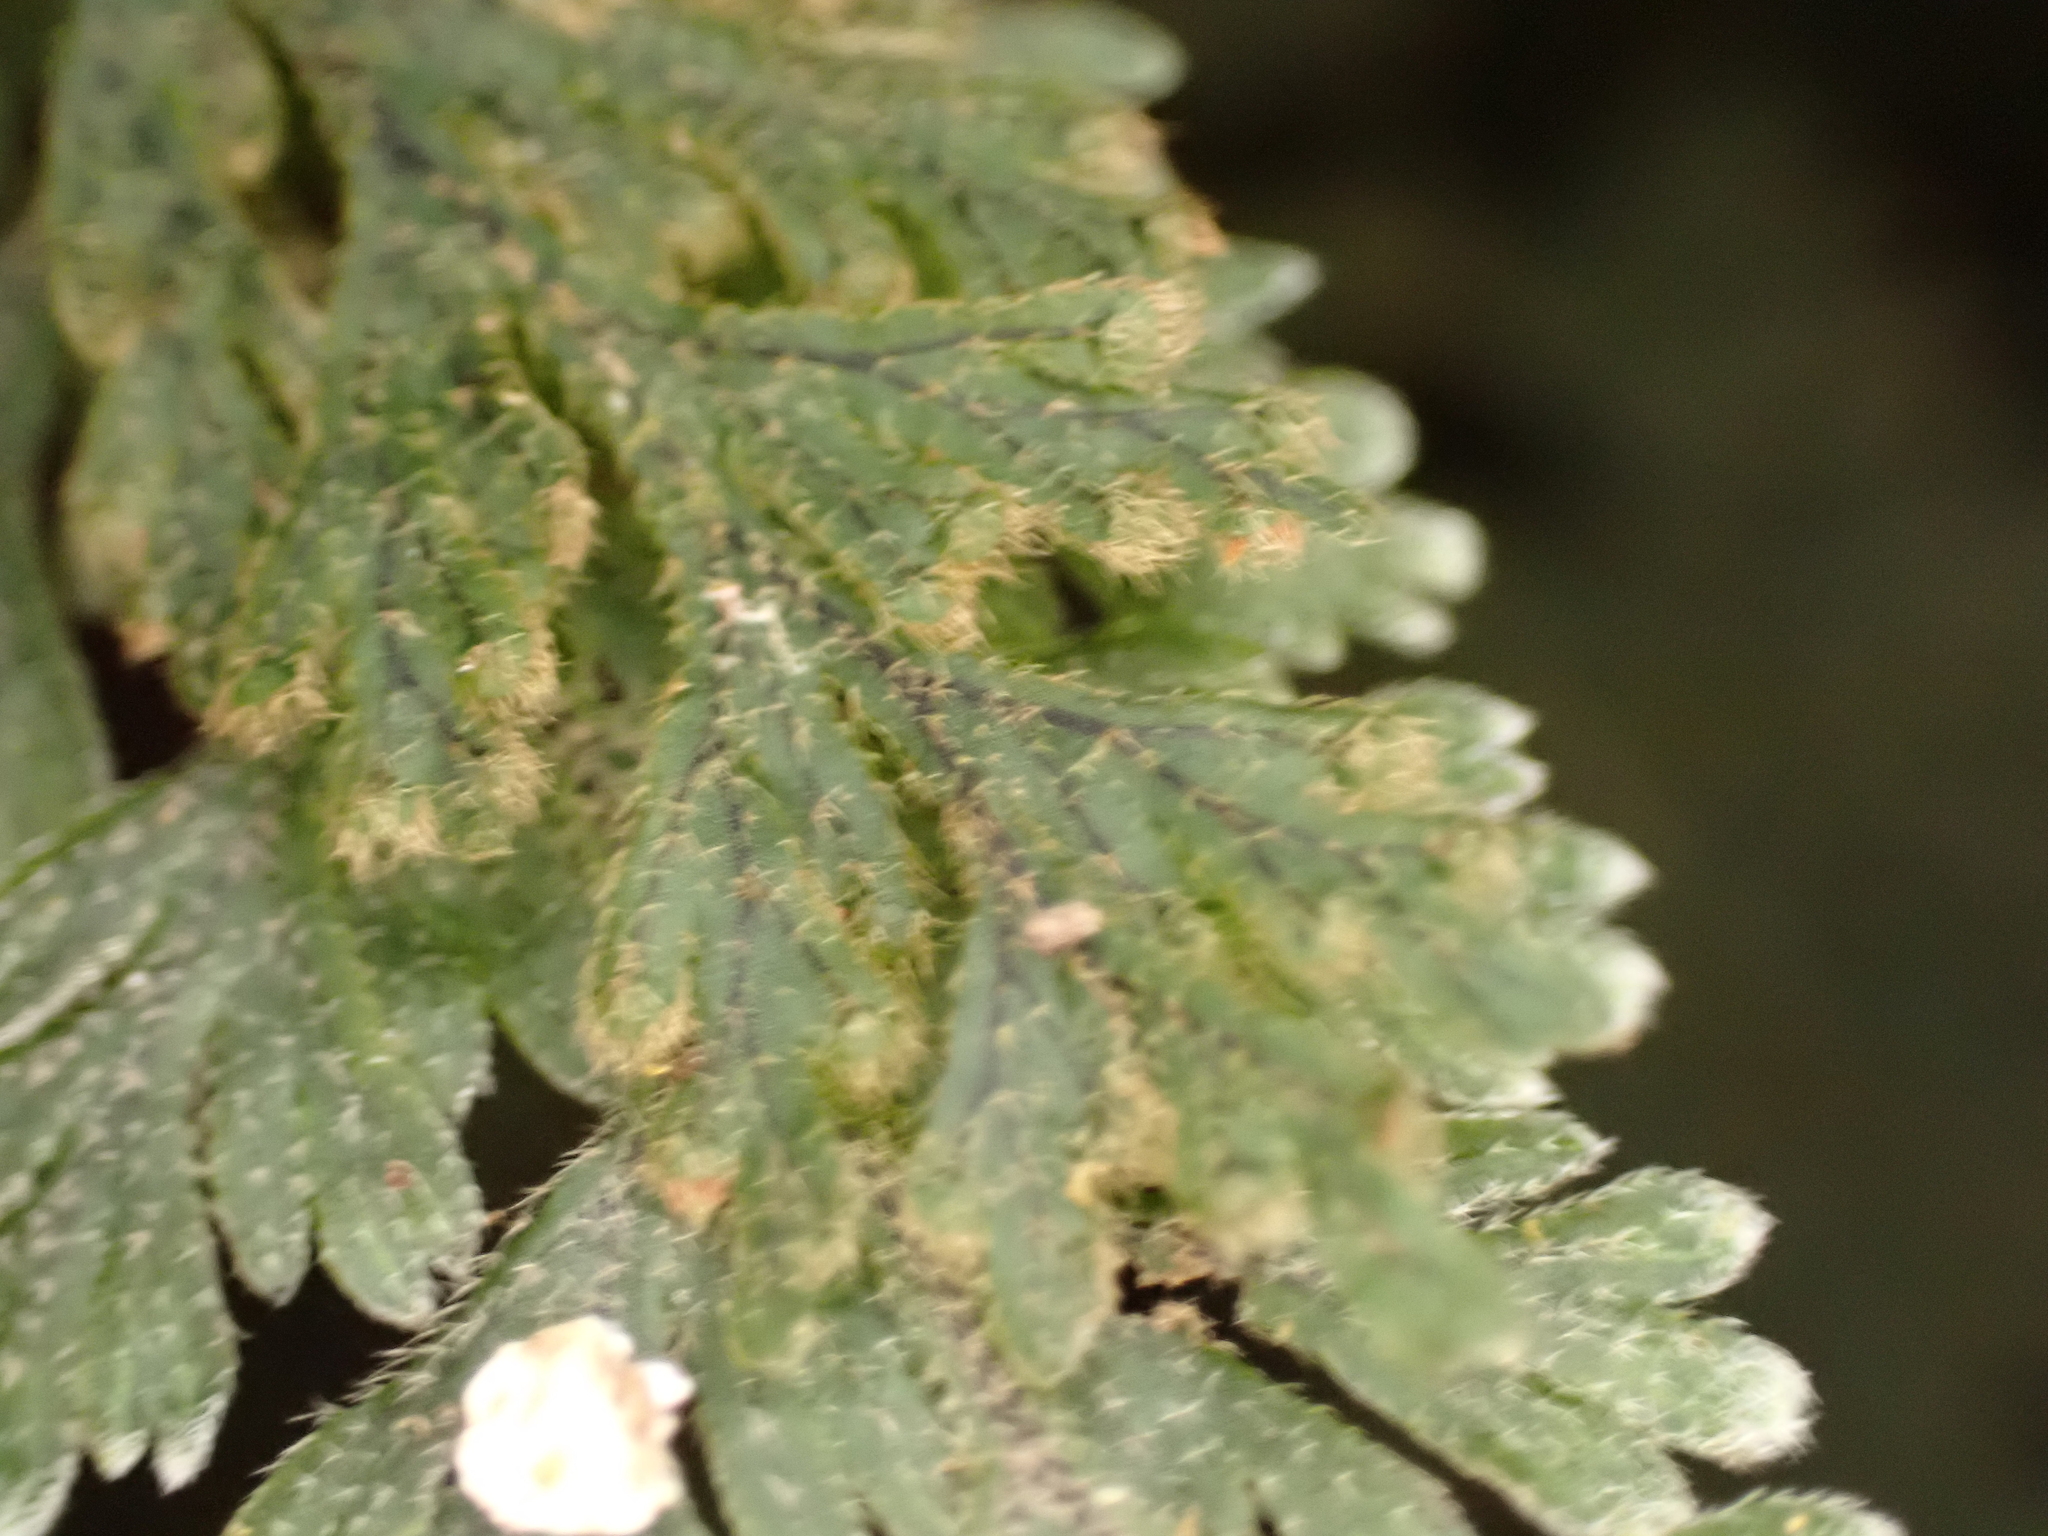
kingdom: Plantae
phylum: Tracheophyta
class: Polypodiopsida
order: Hymenophyllales
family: Hymenophyllaceae
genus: Hymenophyllum
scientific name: Hymenophyllum frankliniae
